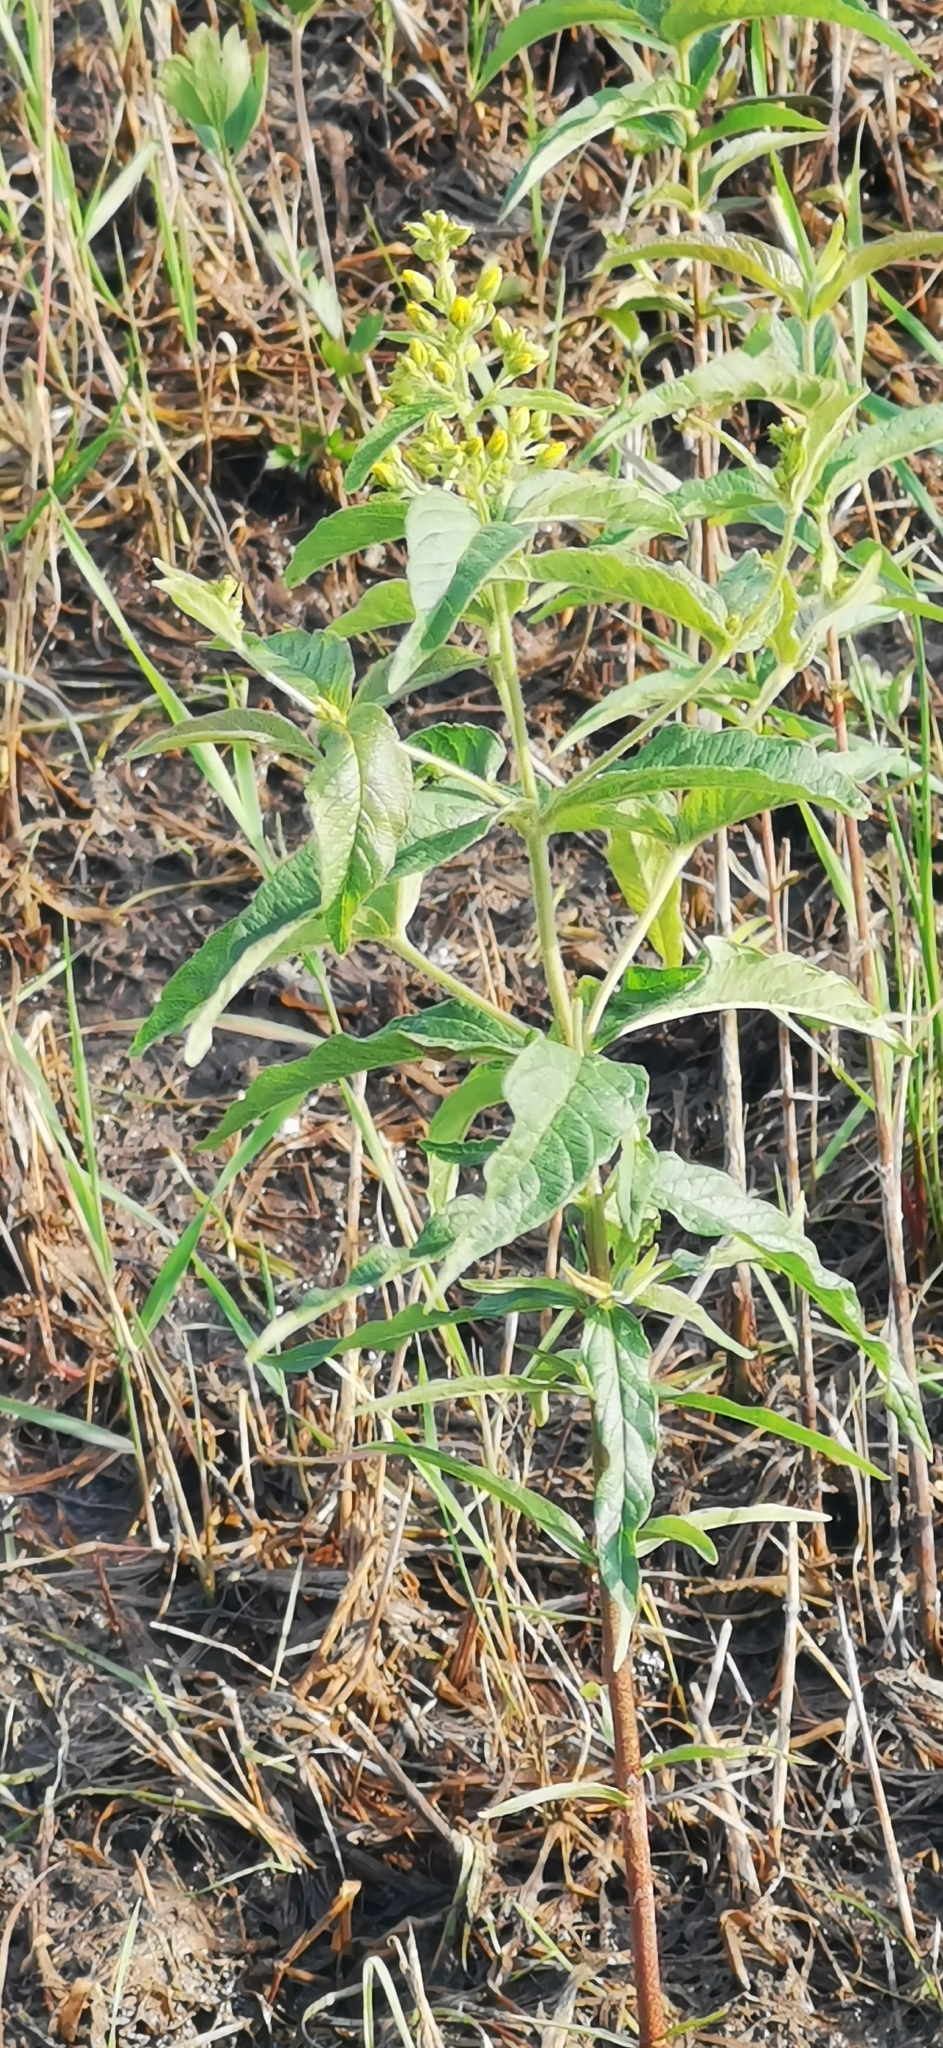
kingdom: Plantae
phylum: Tracheophyta
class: Magnoliopsida
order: Ericales
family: Primulaceae
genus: Lysimachia
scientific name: Lysimachia vulgaris
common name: Yellow loosestrife
